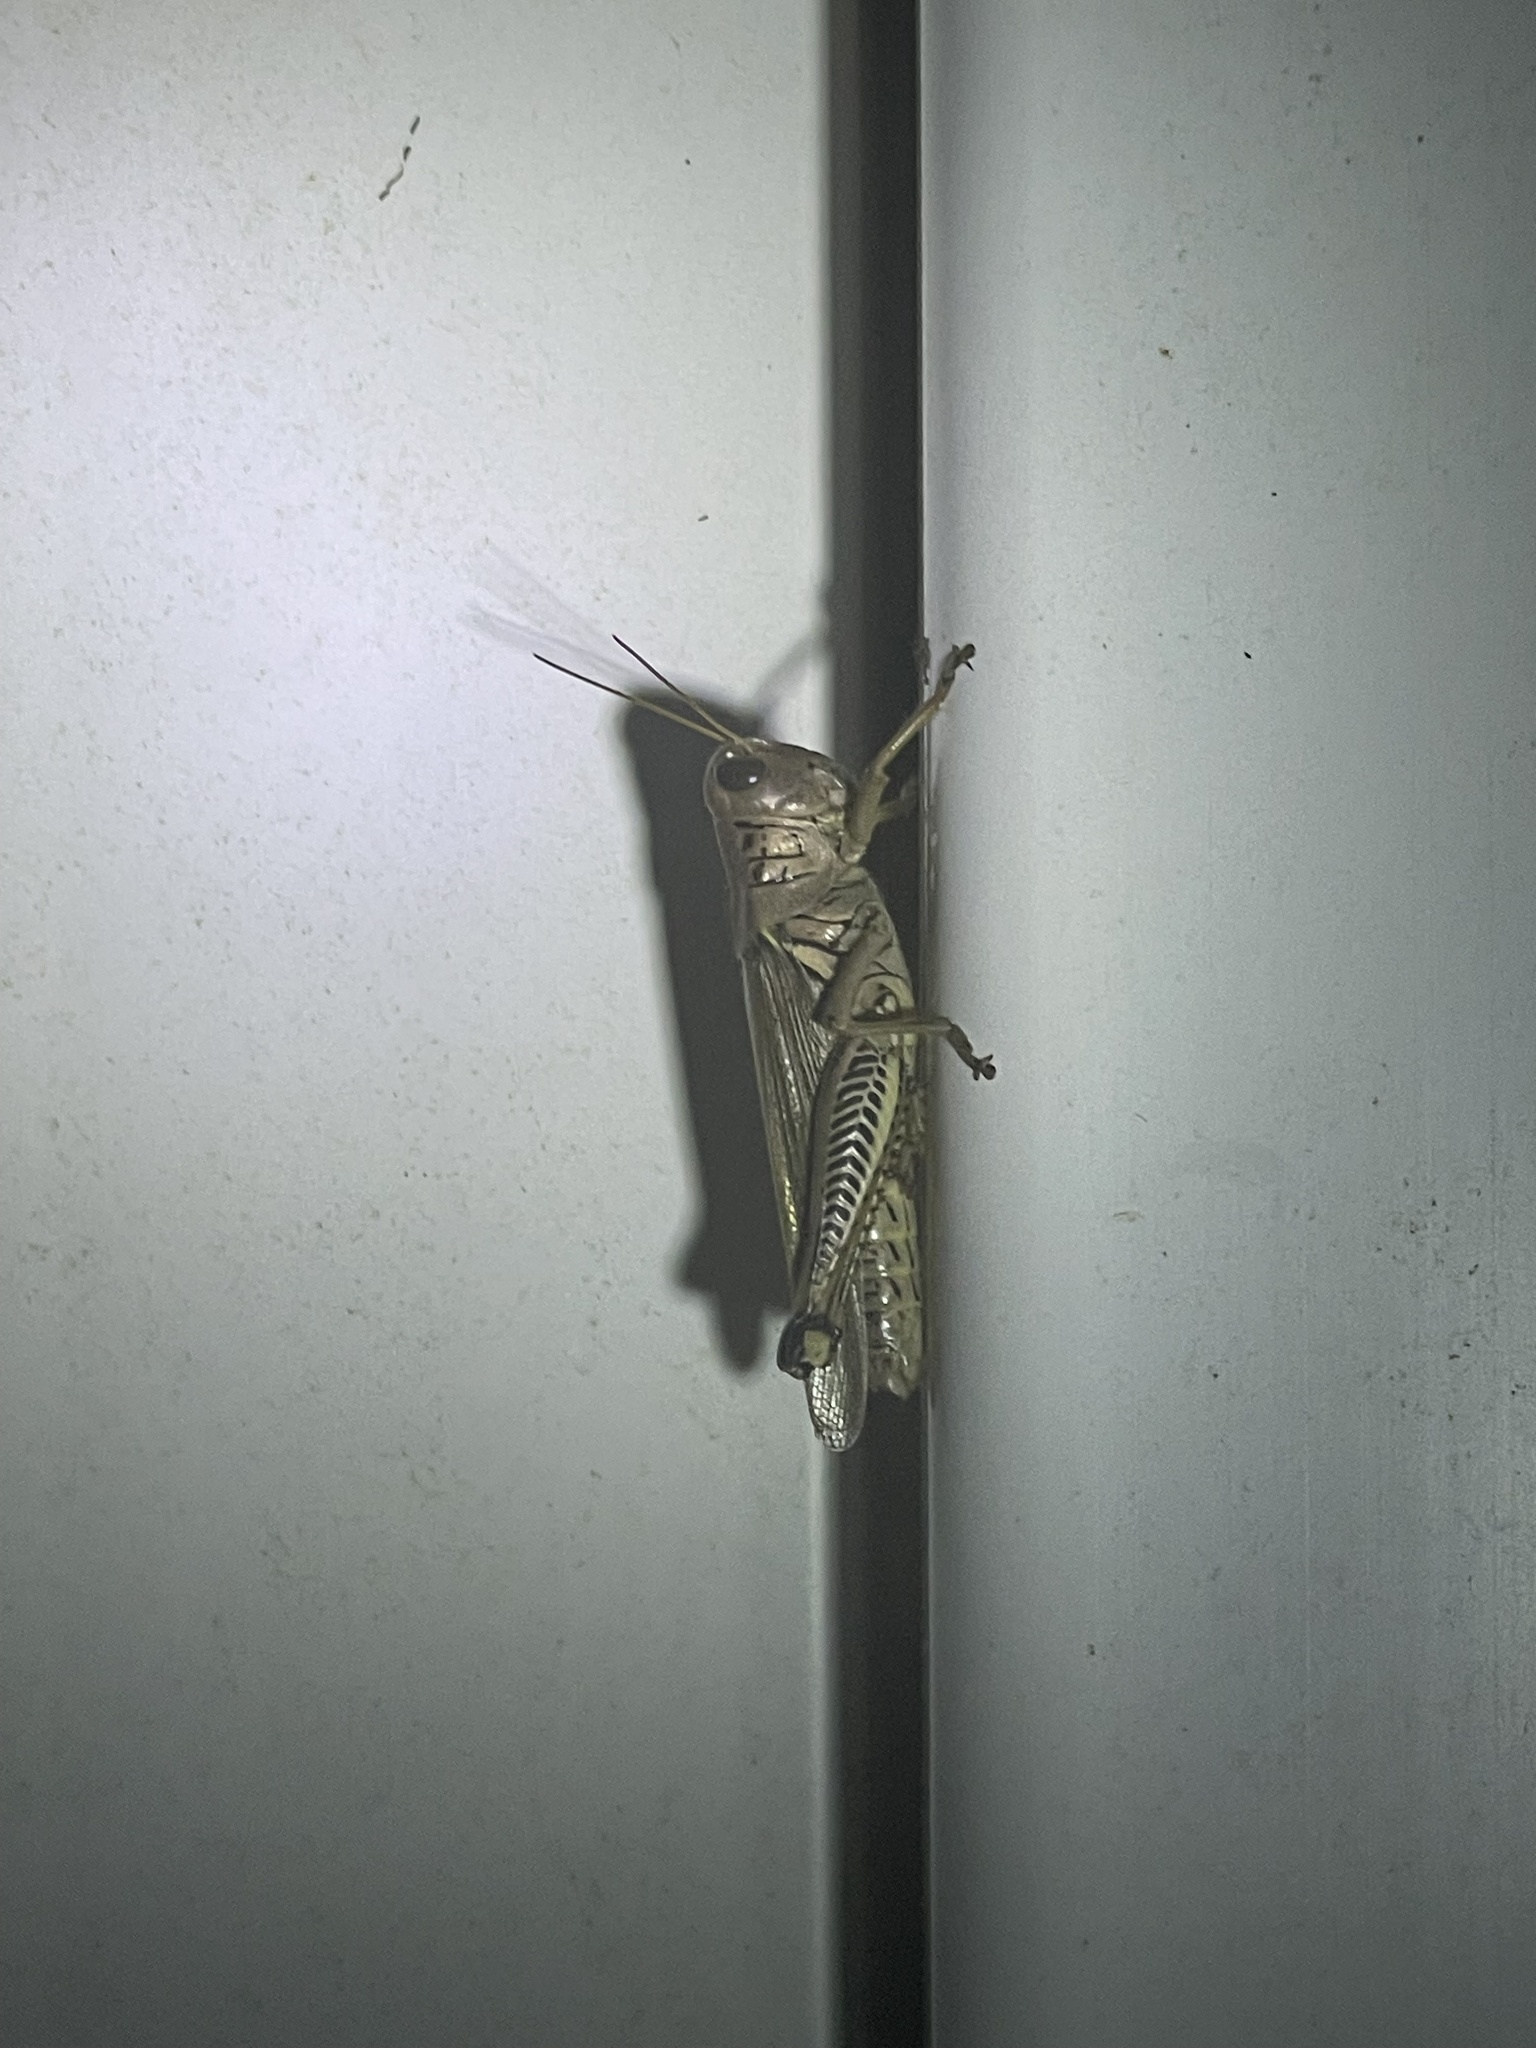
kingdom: Animalia
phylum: Arthropoda
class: Insecta
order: Orthoptera
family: Acrididae
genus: Melanoplus
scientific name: Melanoplus differentialis
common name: Differential grasshopper
